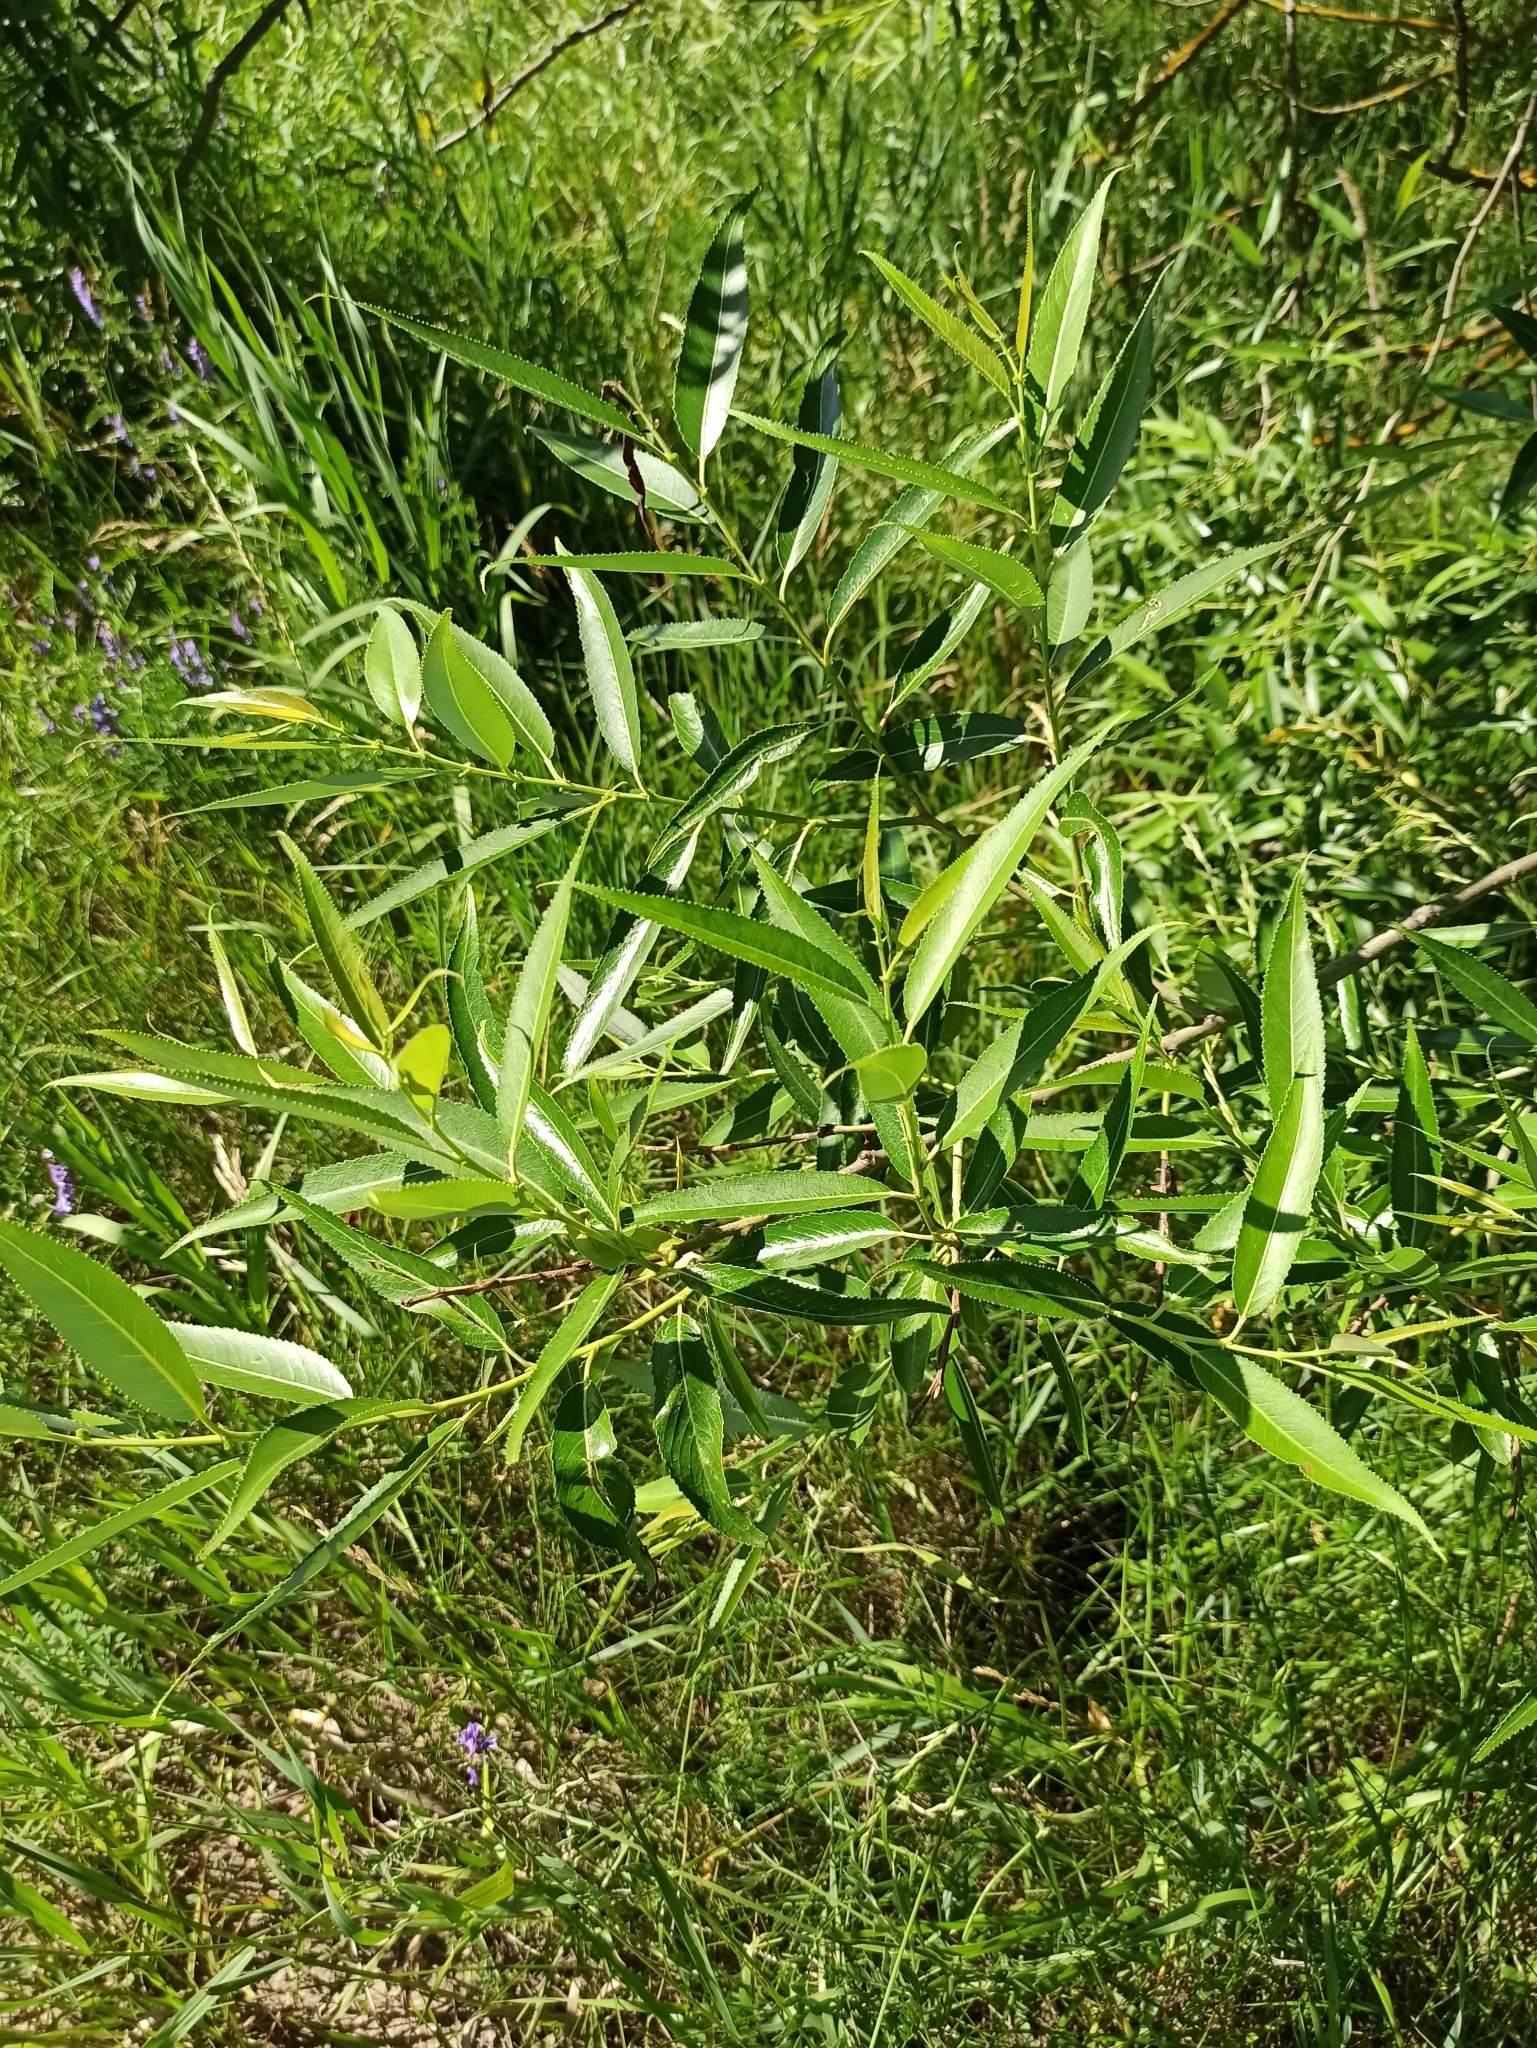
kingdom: Plantae
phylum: Tracheophyta
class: Magnoliopsida
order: Malpighiales
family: Salicaceae
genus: Salix
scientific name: Salix fragilis
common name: Crack willow
